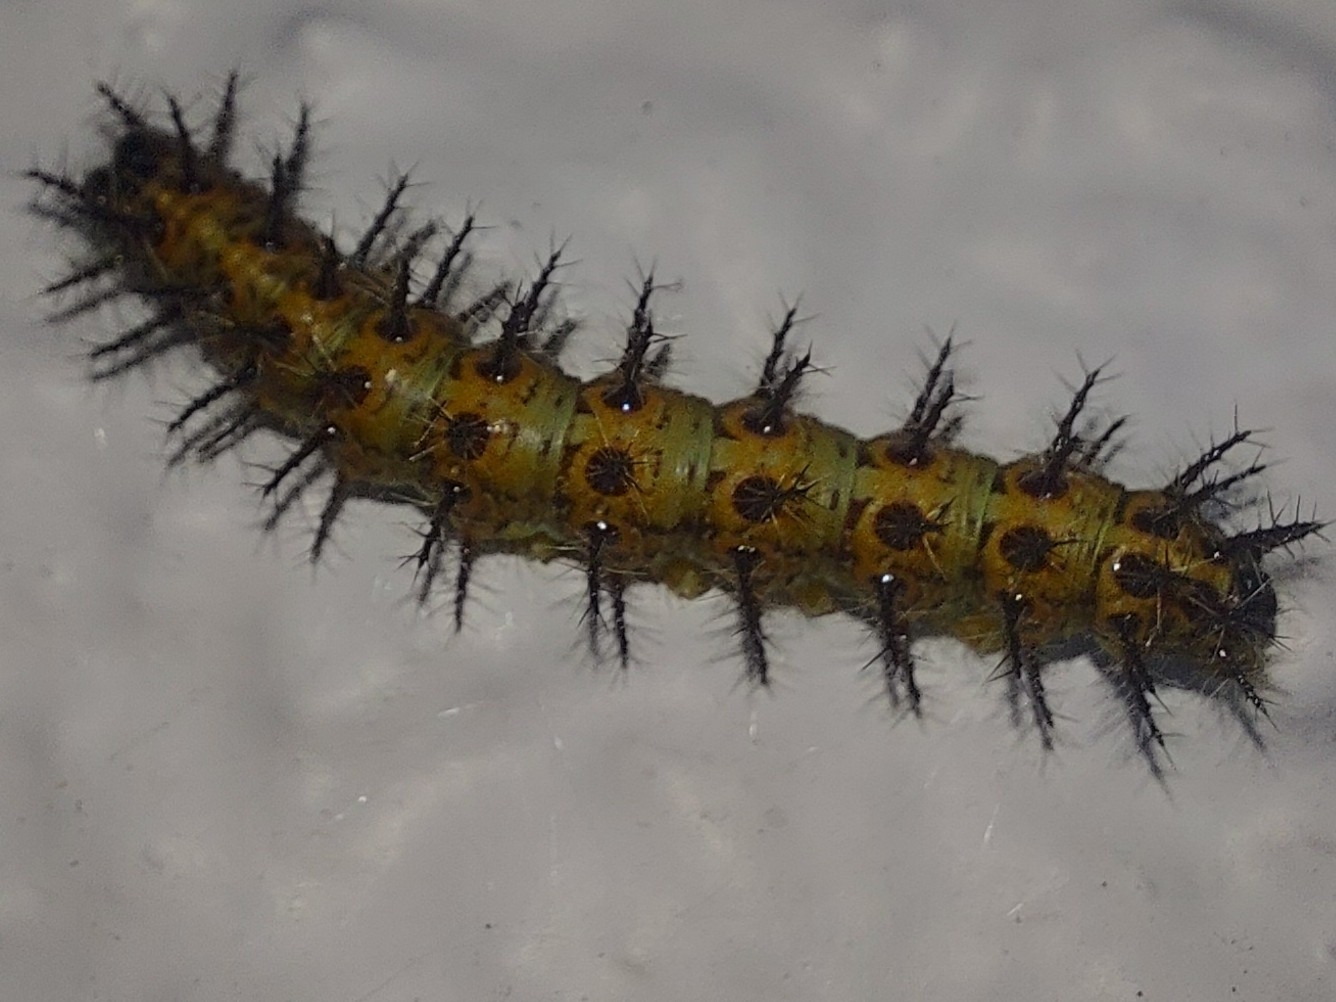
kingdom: Animalia
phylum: Arthropoda
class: Insecta
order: Lepidoptera
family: Nymphalidae
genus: Acraea
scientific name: Acraea horta
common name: Garden acraea
